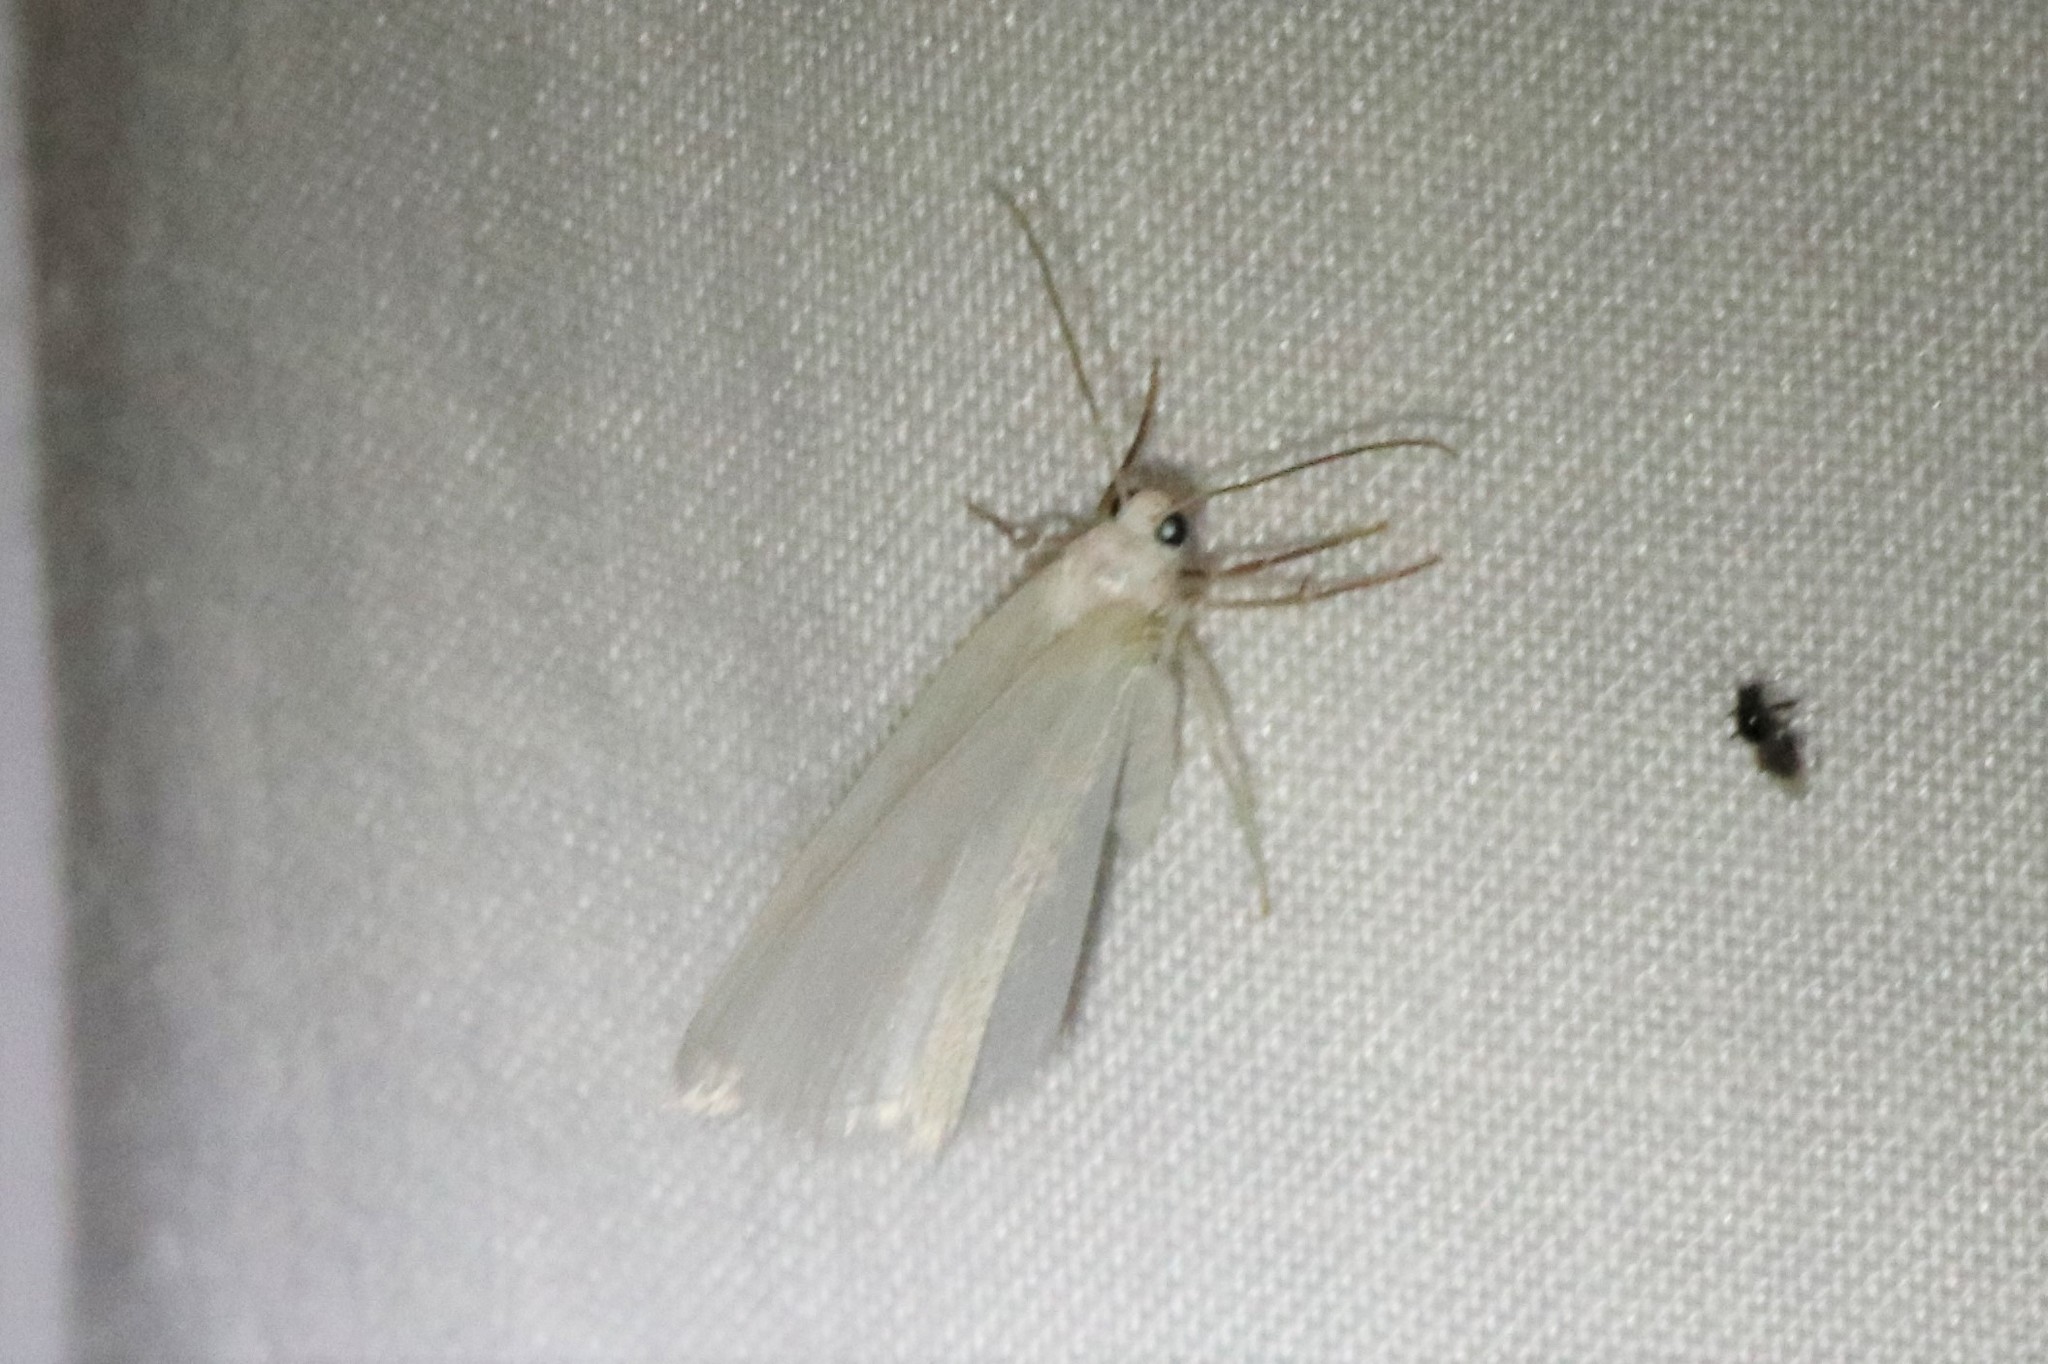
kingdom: Animalia
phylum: Arthropoda
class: Insecta
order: Lepidoptera
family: Geometridae
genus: Lomographa
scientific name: Lomographa vestaliata
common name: White spring moth
